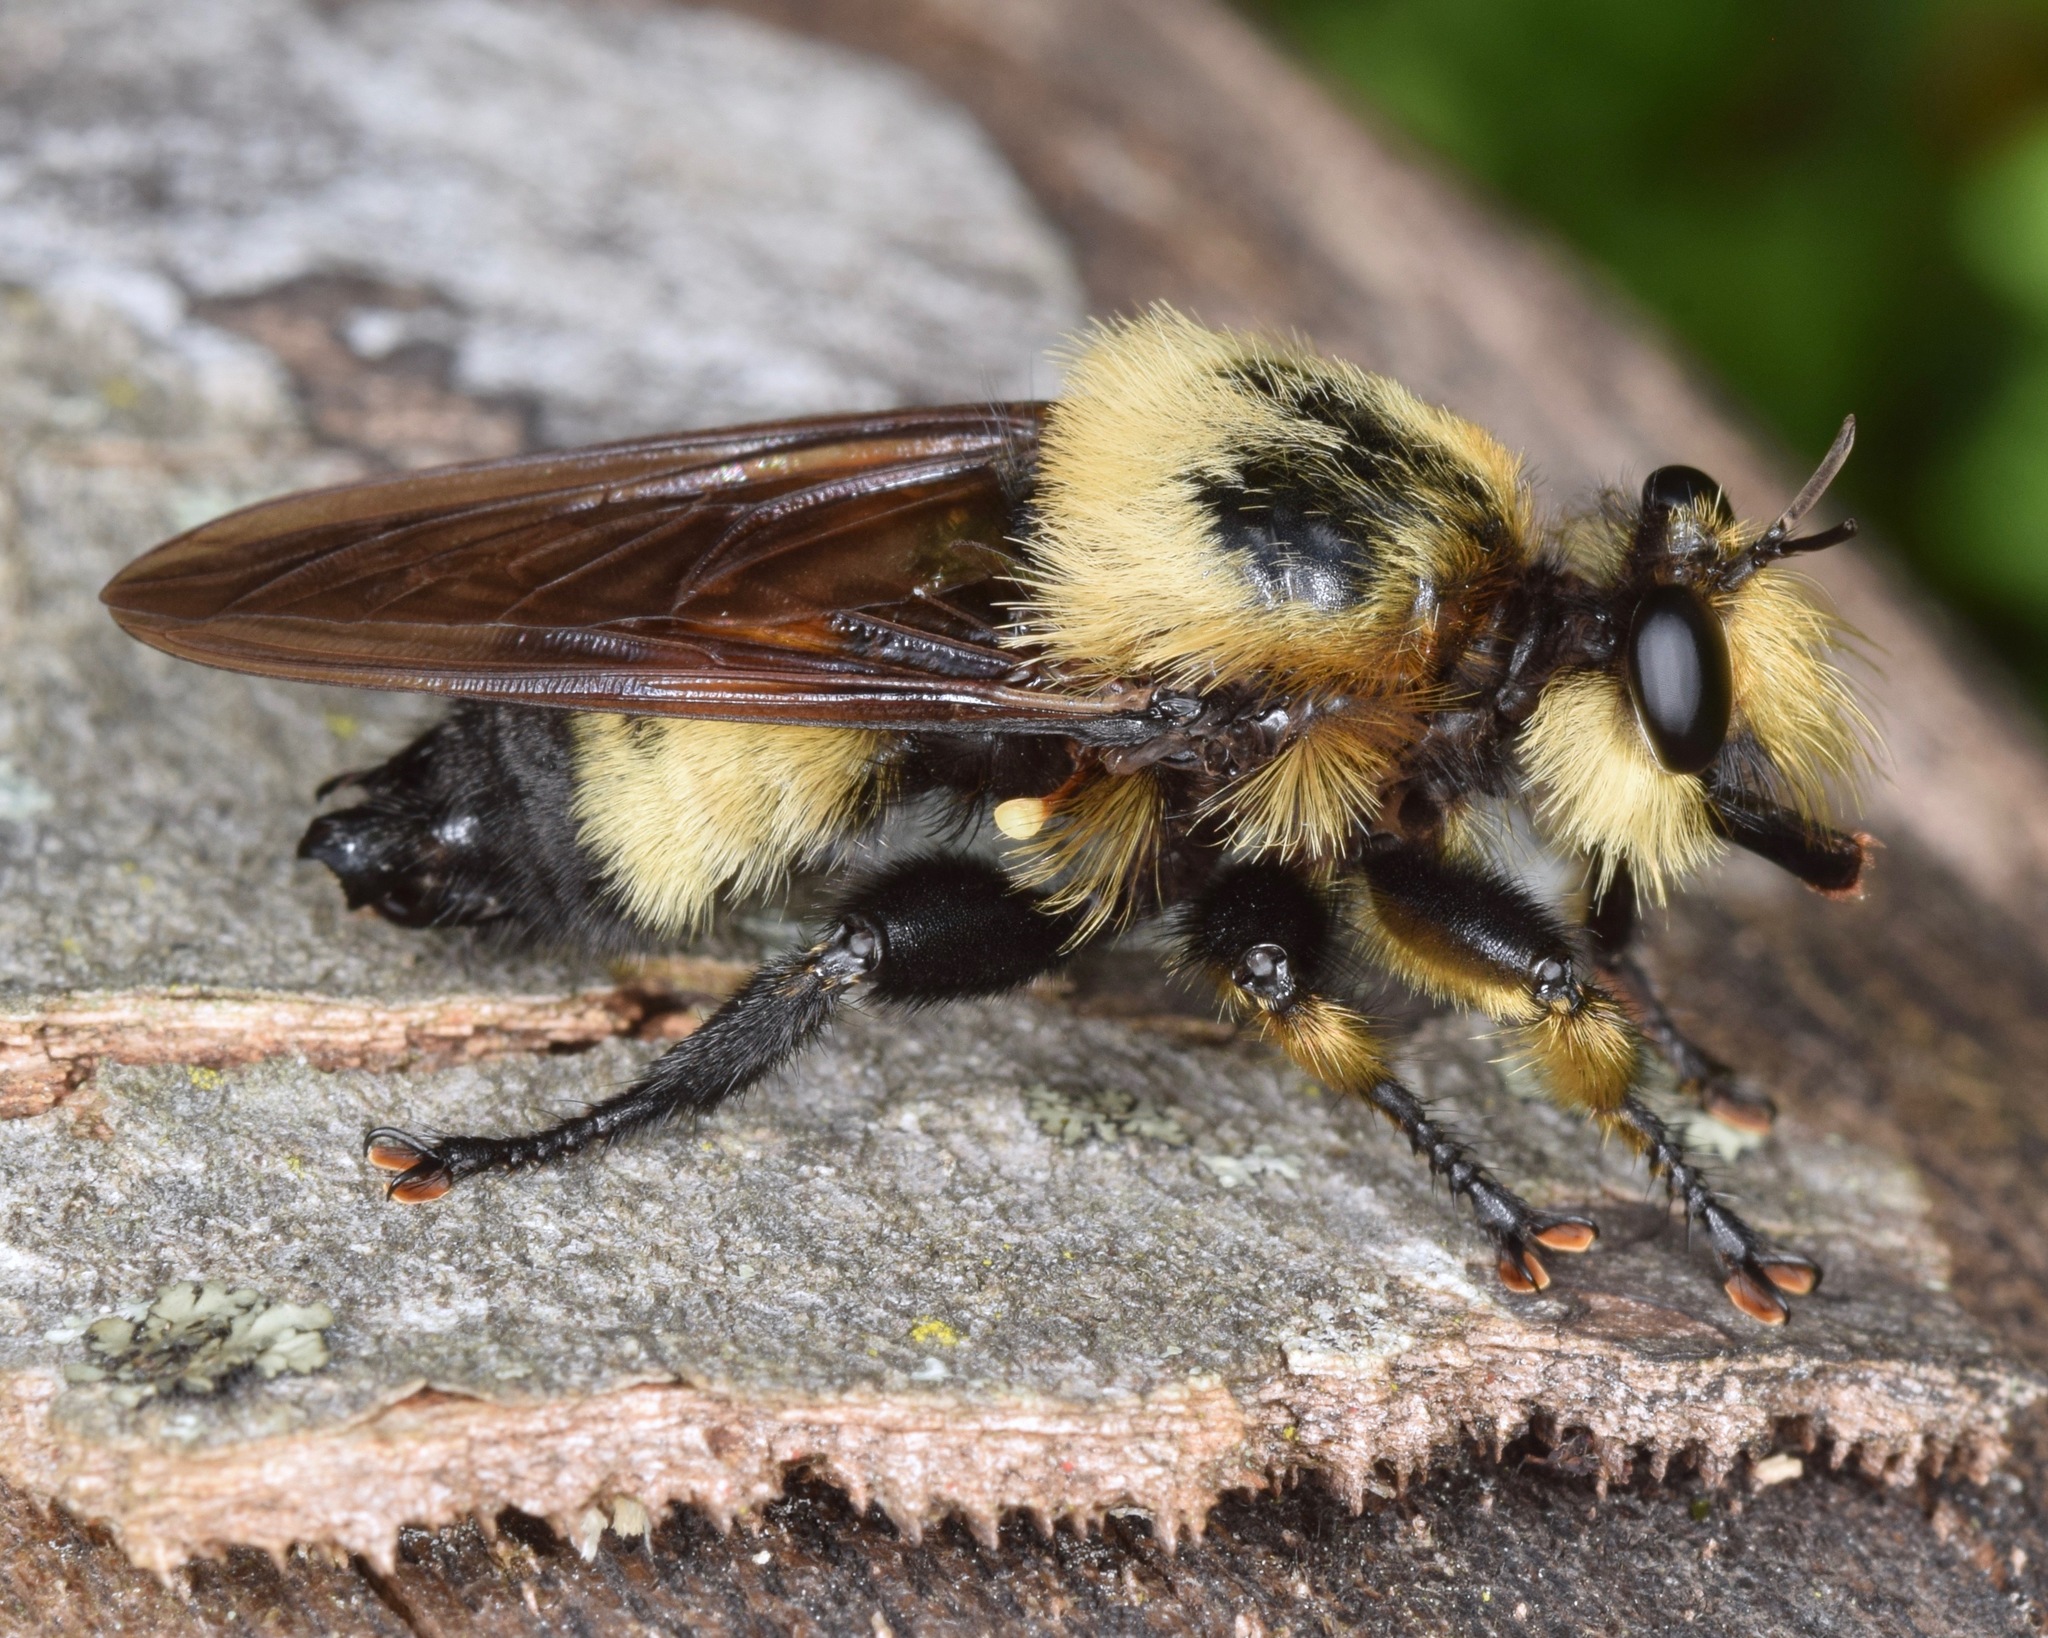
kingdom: Animalia
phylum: Arthropoda
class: Insecta
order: Diptera
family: Asilidae
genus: Laphria
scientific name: Laphria grossa
